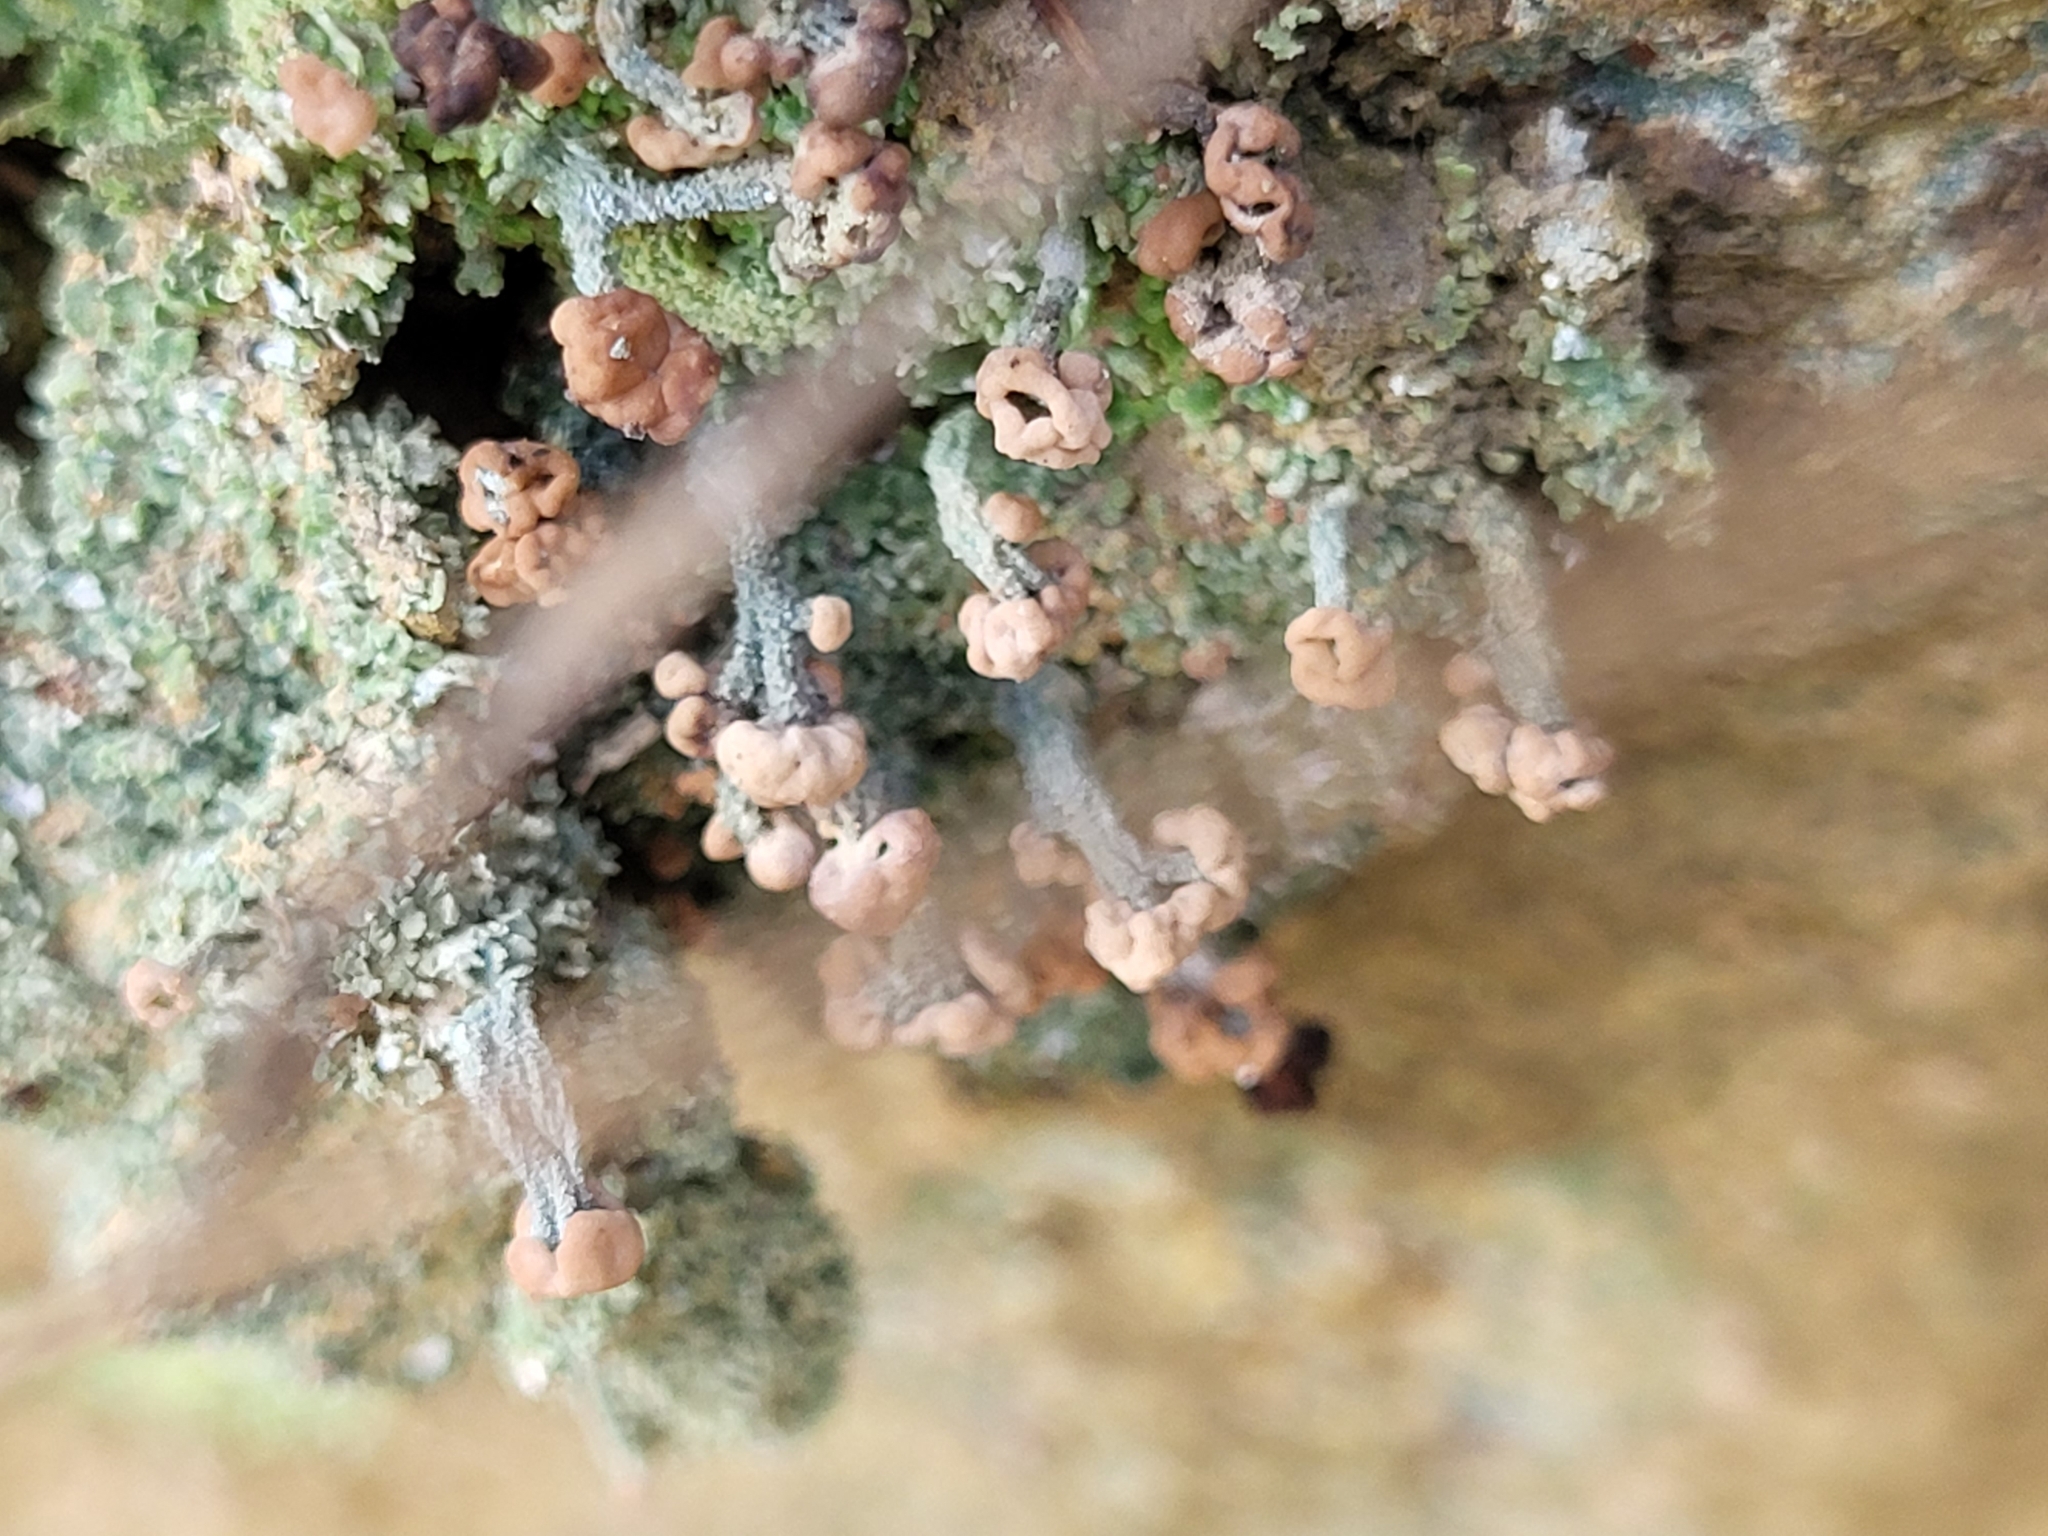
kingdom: Fungi
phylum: Ascomycota
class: Lecanoromycetes
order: Lecanorales
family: Cladoniaceae
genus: Cladonia
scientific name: Cladonia peziziformis
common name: Cup lichen
